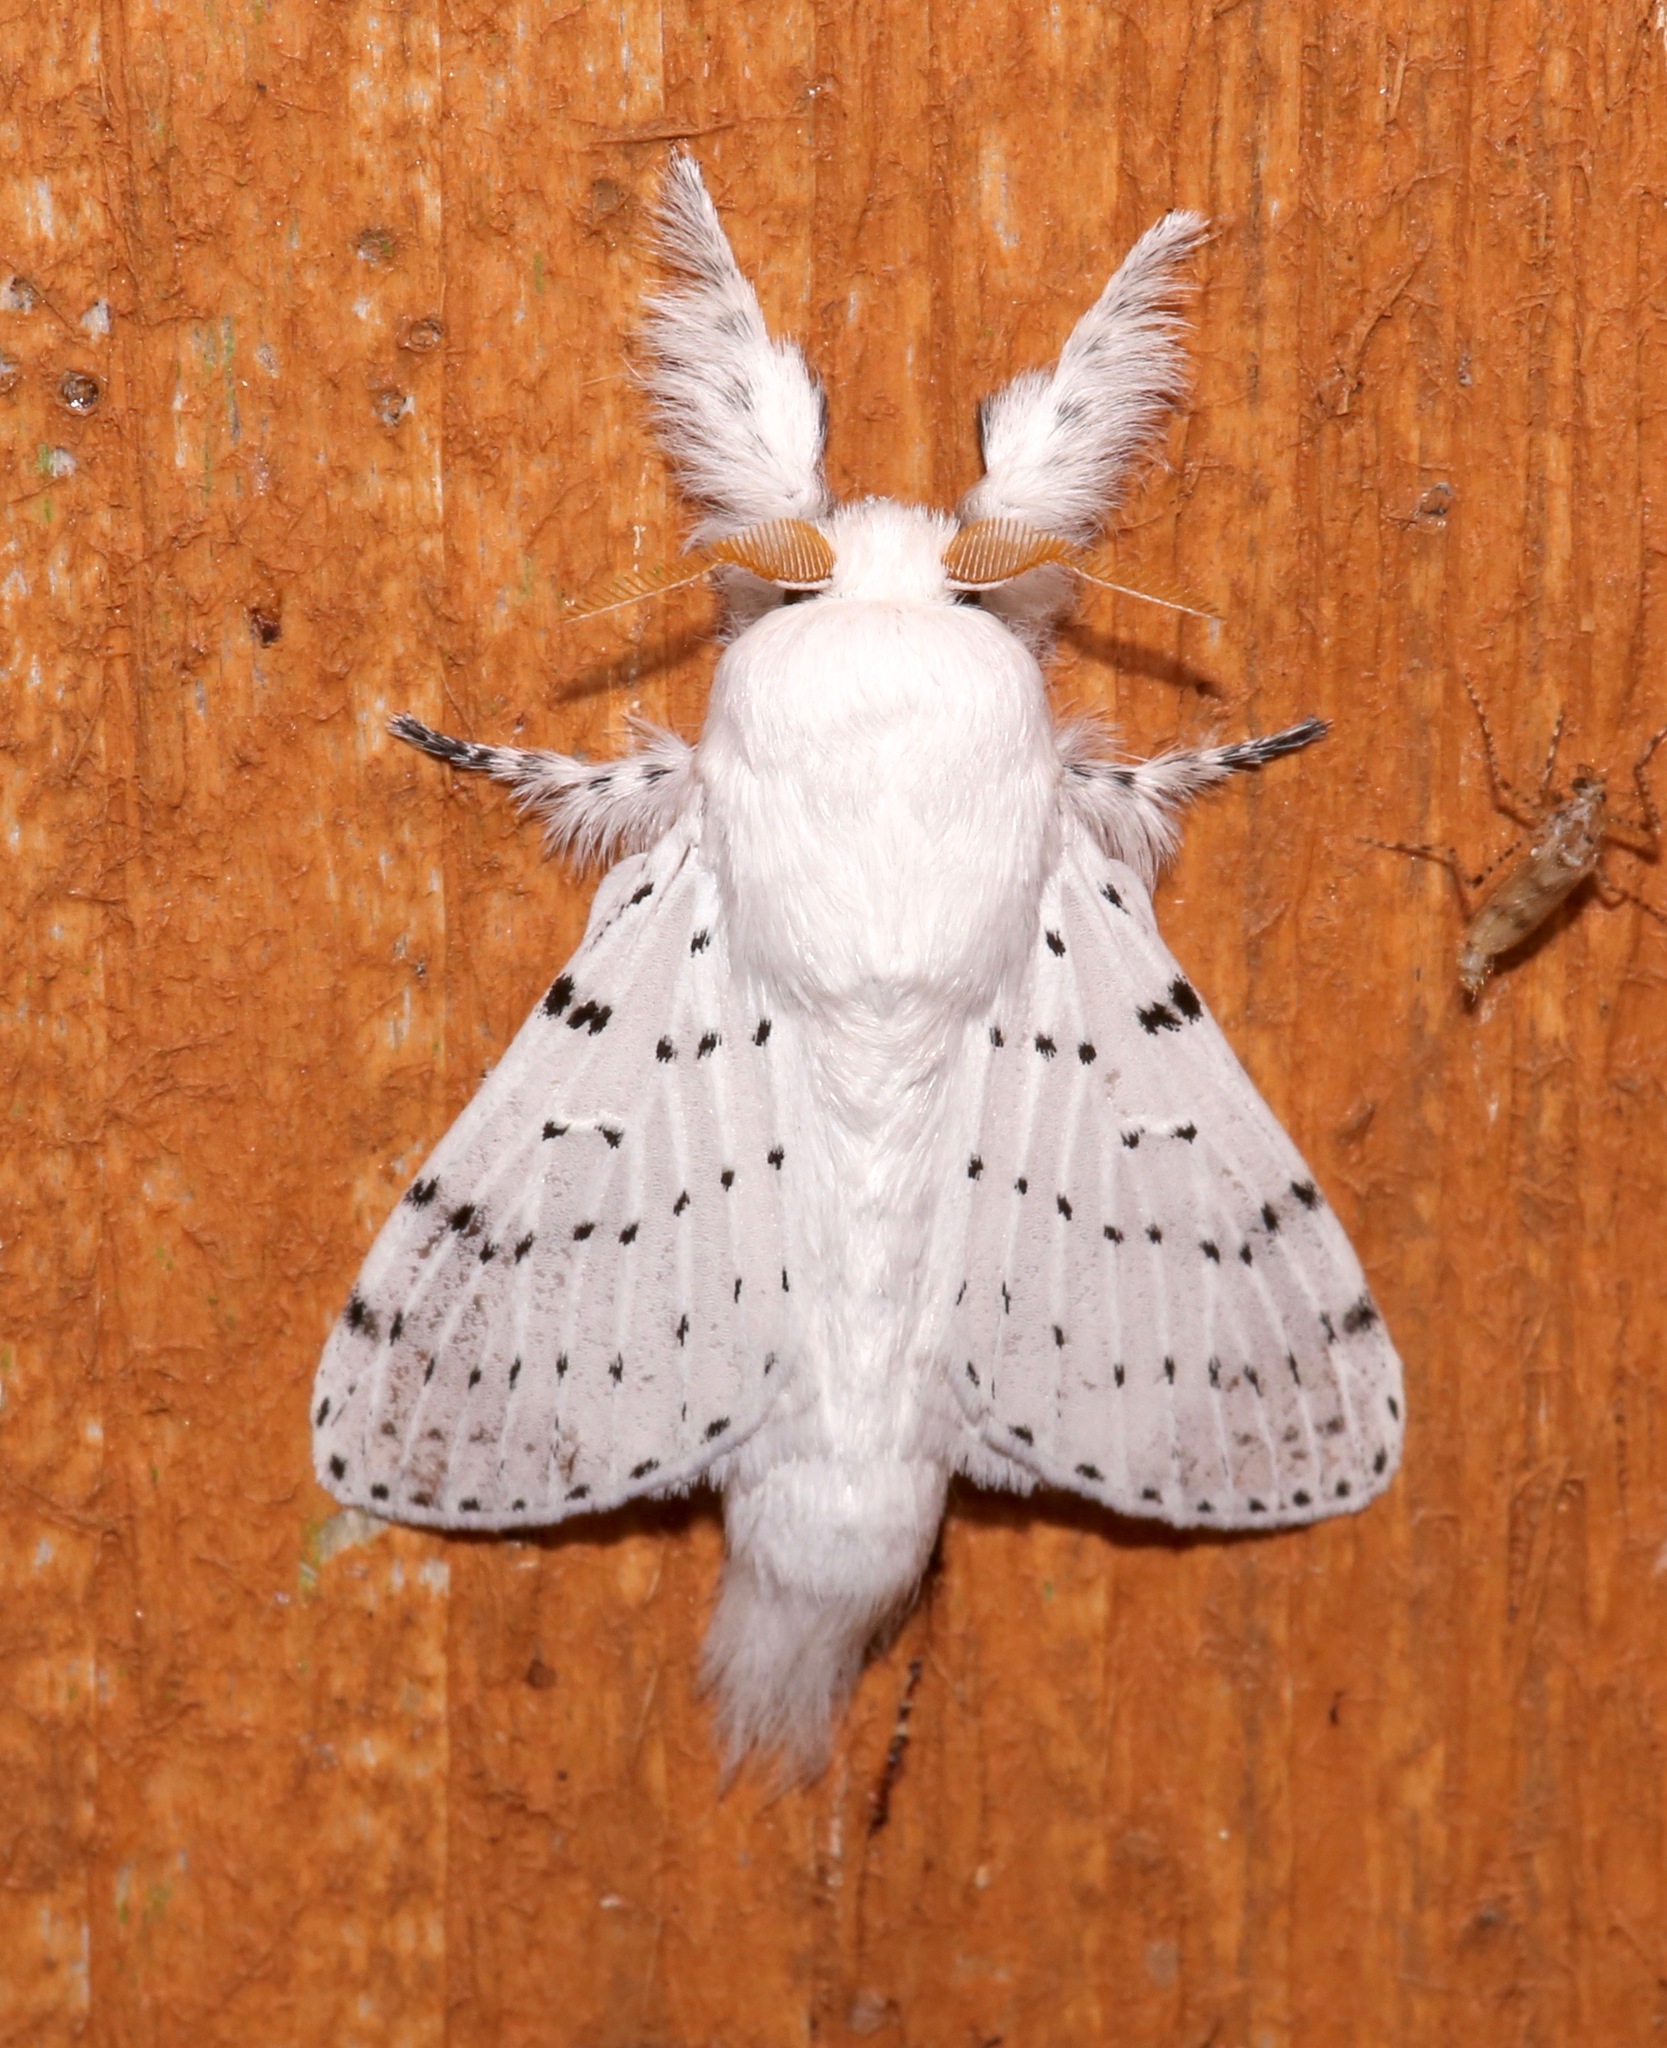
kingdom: Animalia
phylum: Arthropoda
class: Insecta
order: Lepidoptera
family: Lasiocampidae
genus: Artace
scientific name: Artace cribrarius
